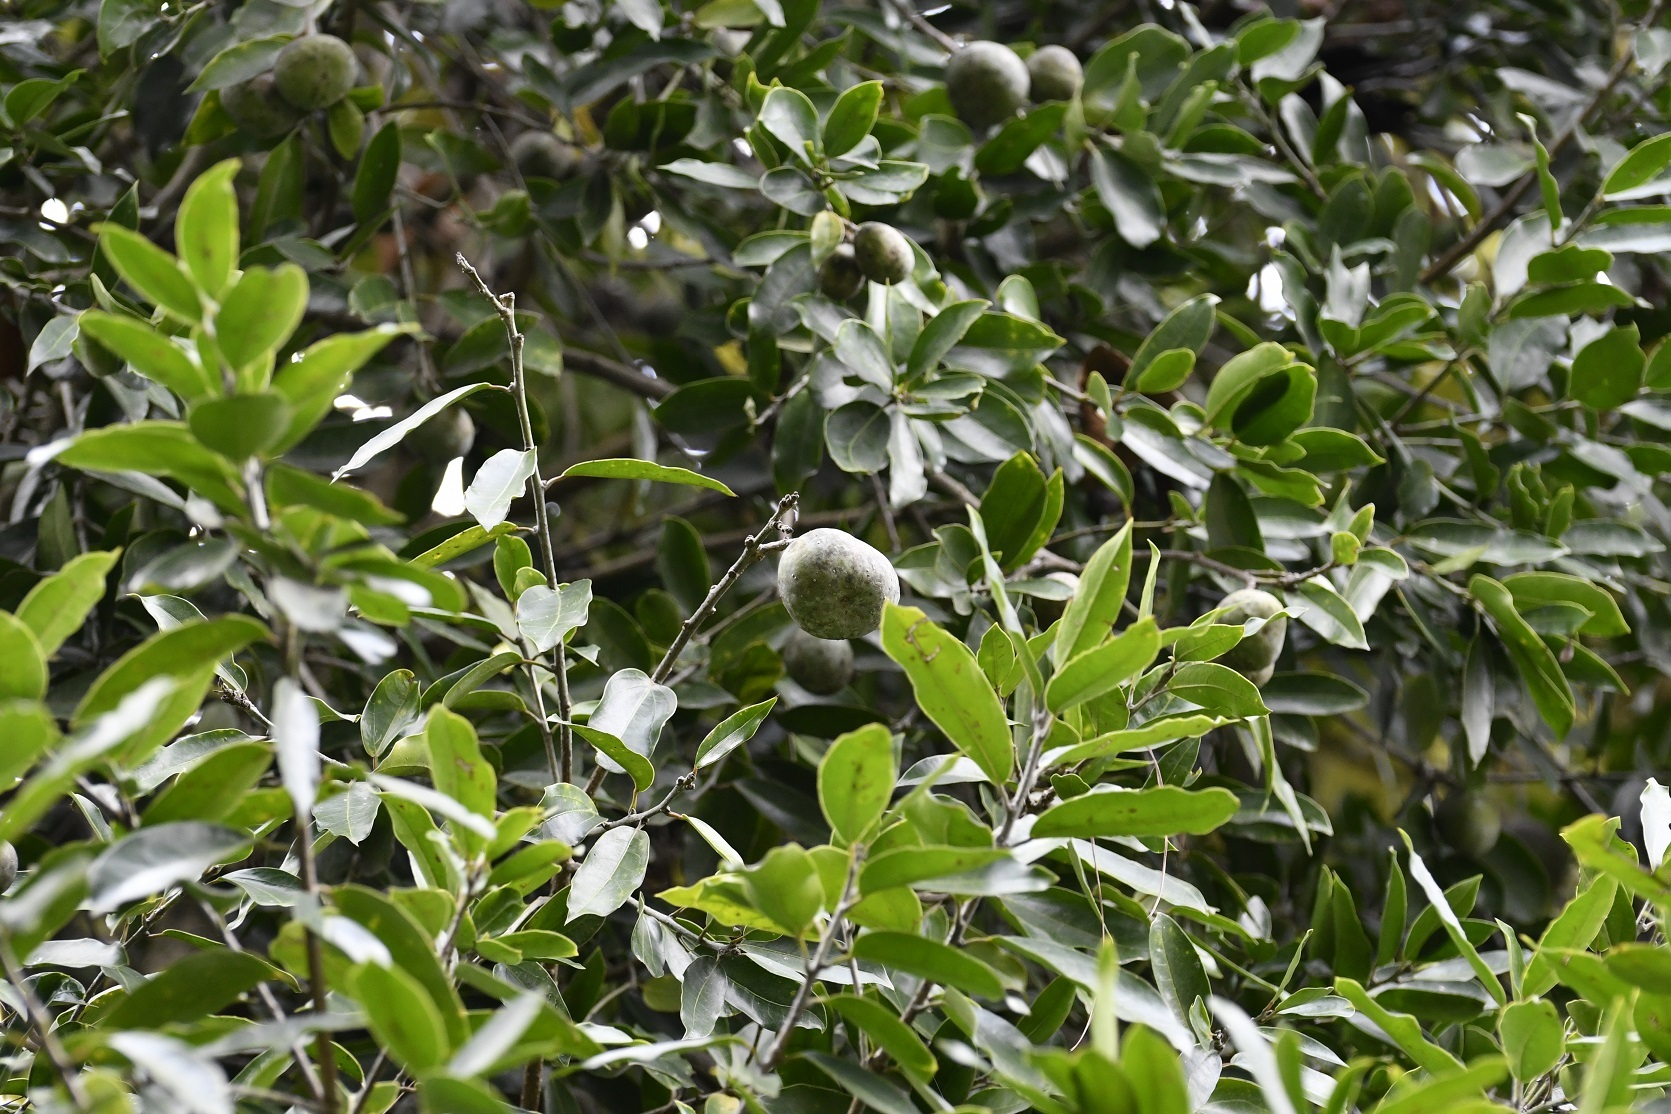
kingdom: Plantae
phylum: Tracheophyta
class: Magnoliopsida
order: Malpighiales
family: Salicaceae
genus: Olmediella
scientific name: Olmediella betschleriana
